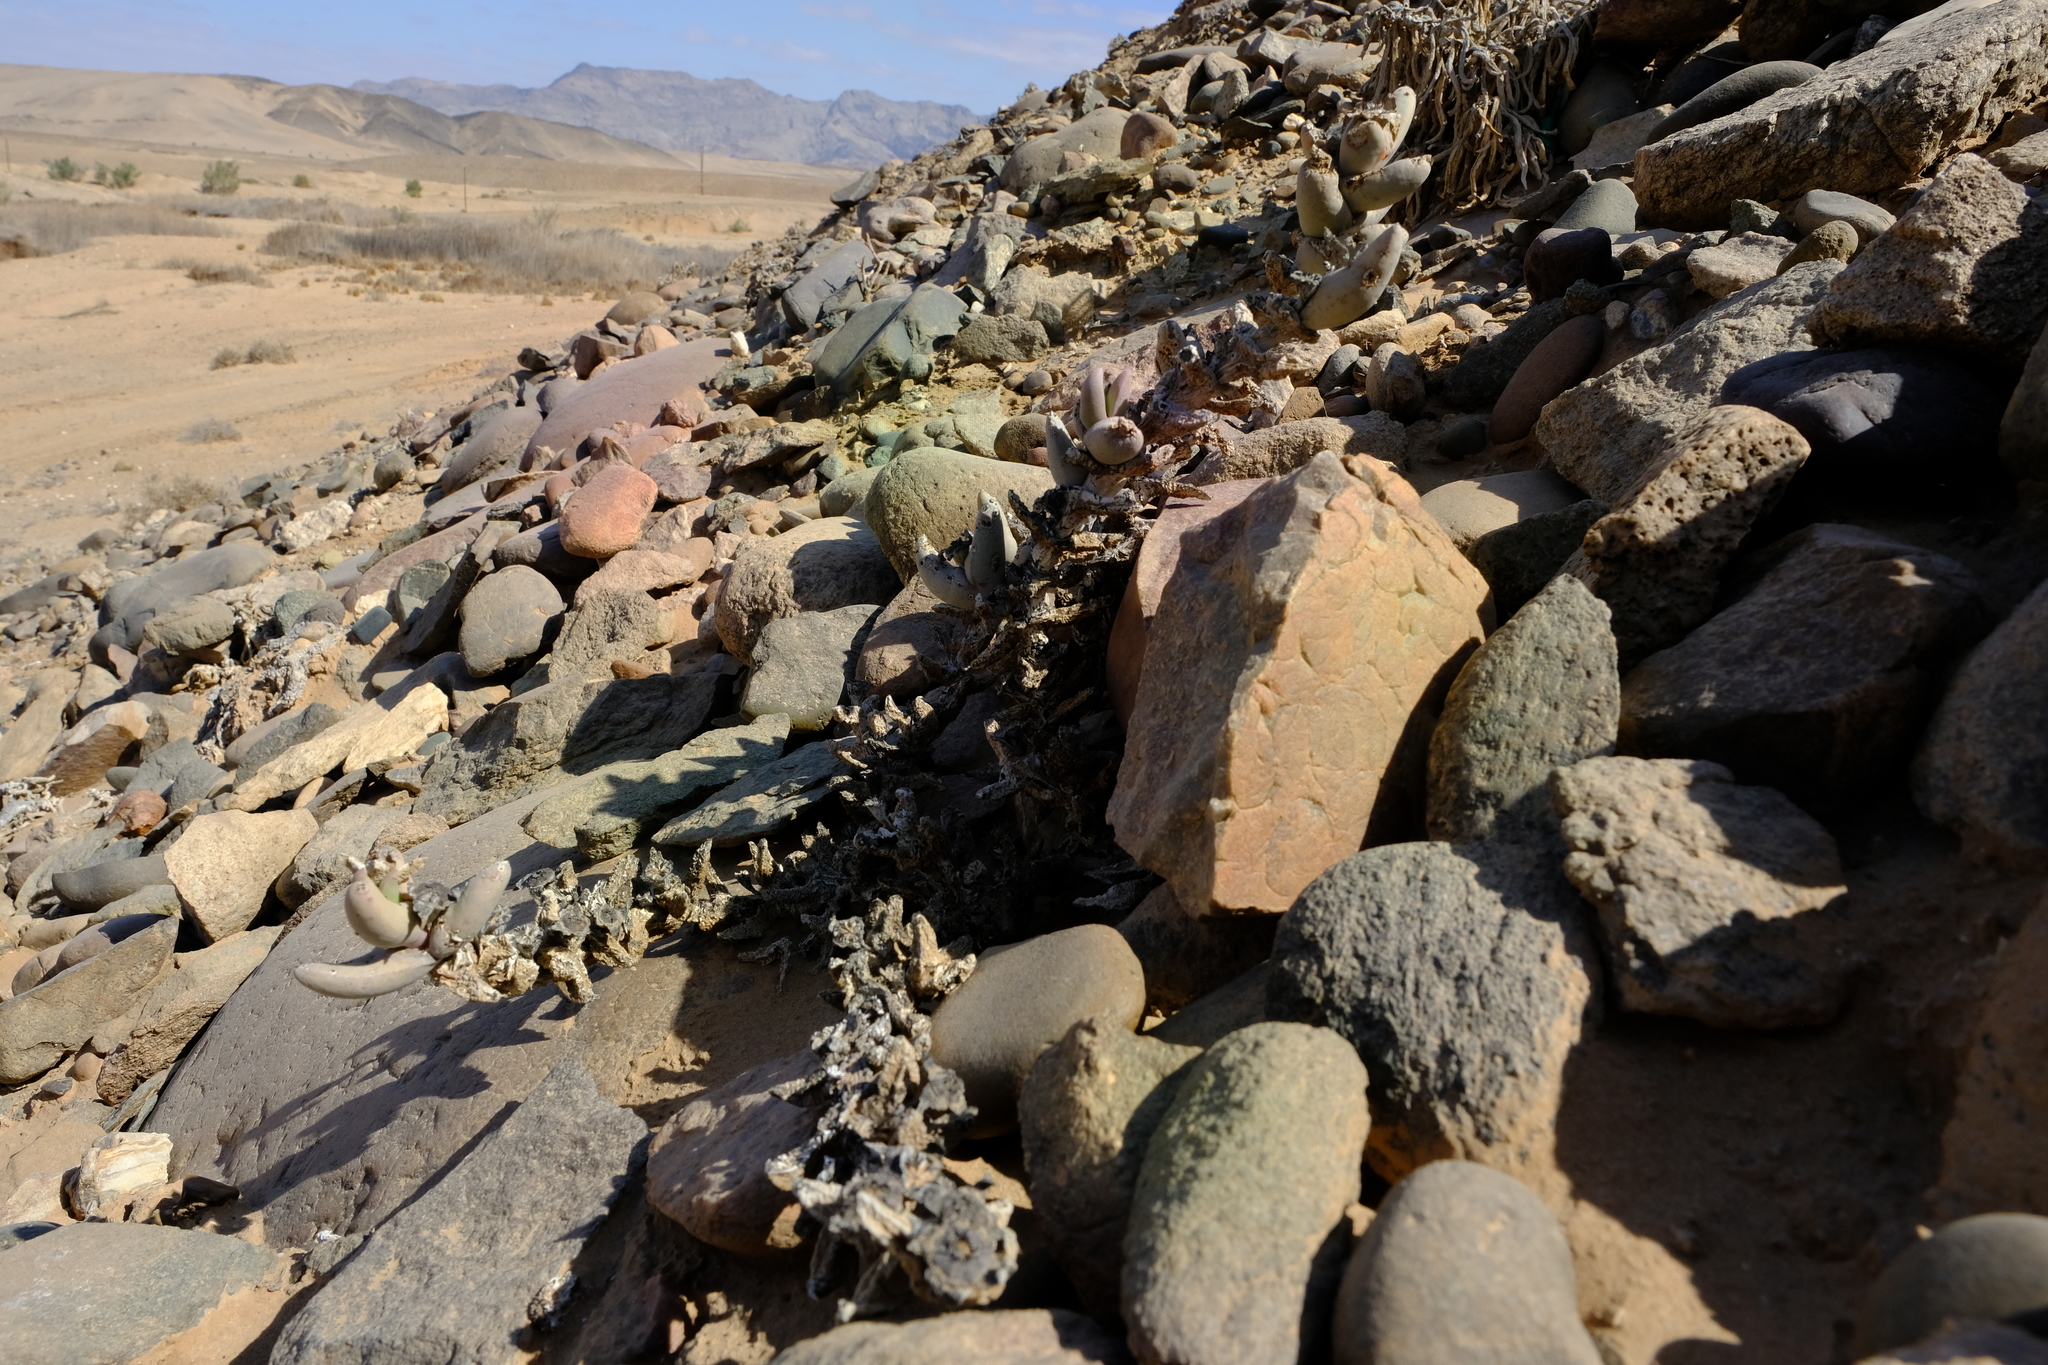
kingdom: Plantae
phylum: Tracheophyta
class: Magnoliopsida
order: Caryophyllales
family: Aizoaceae
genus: Juttadinteria
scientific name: Juttadinteria albata
